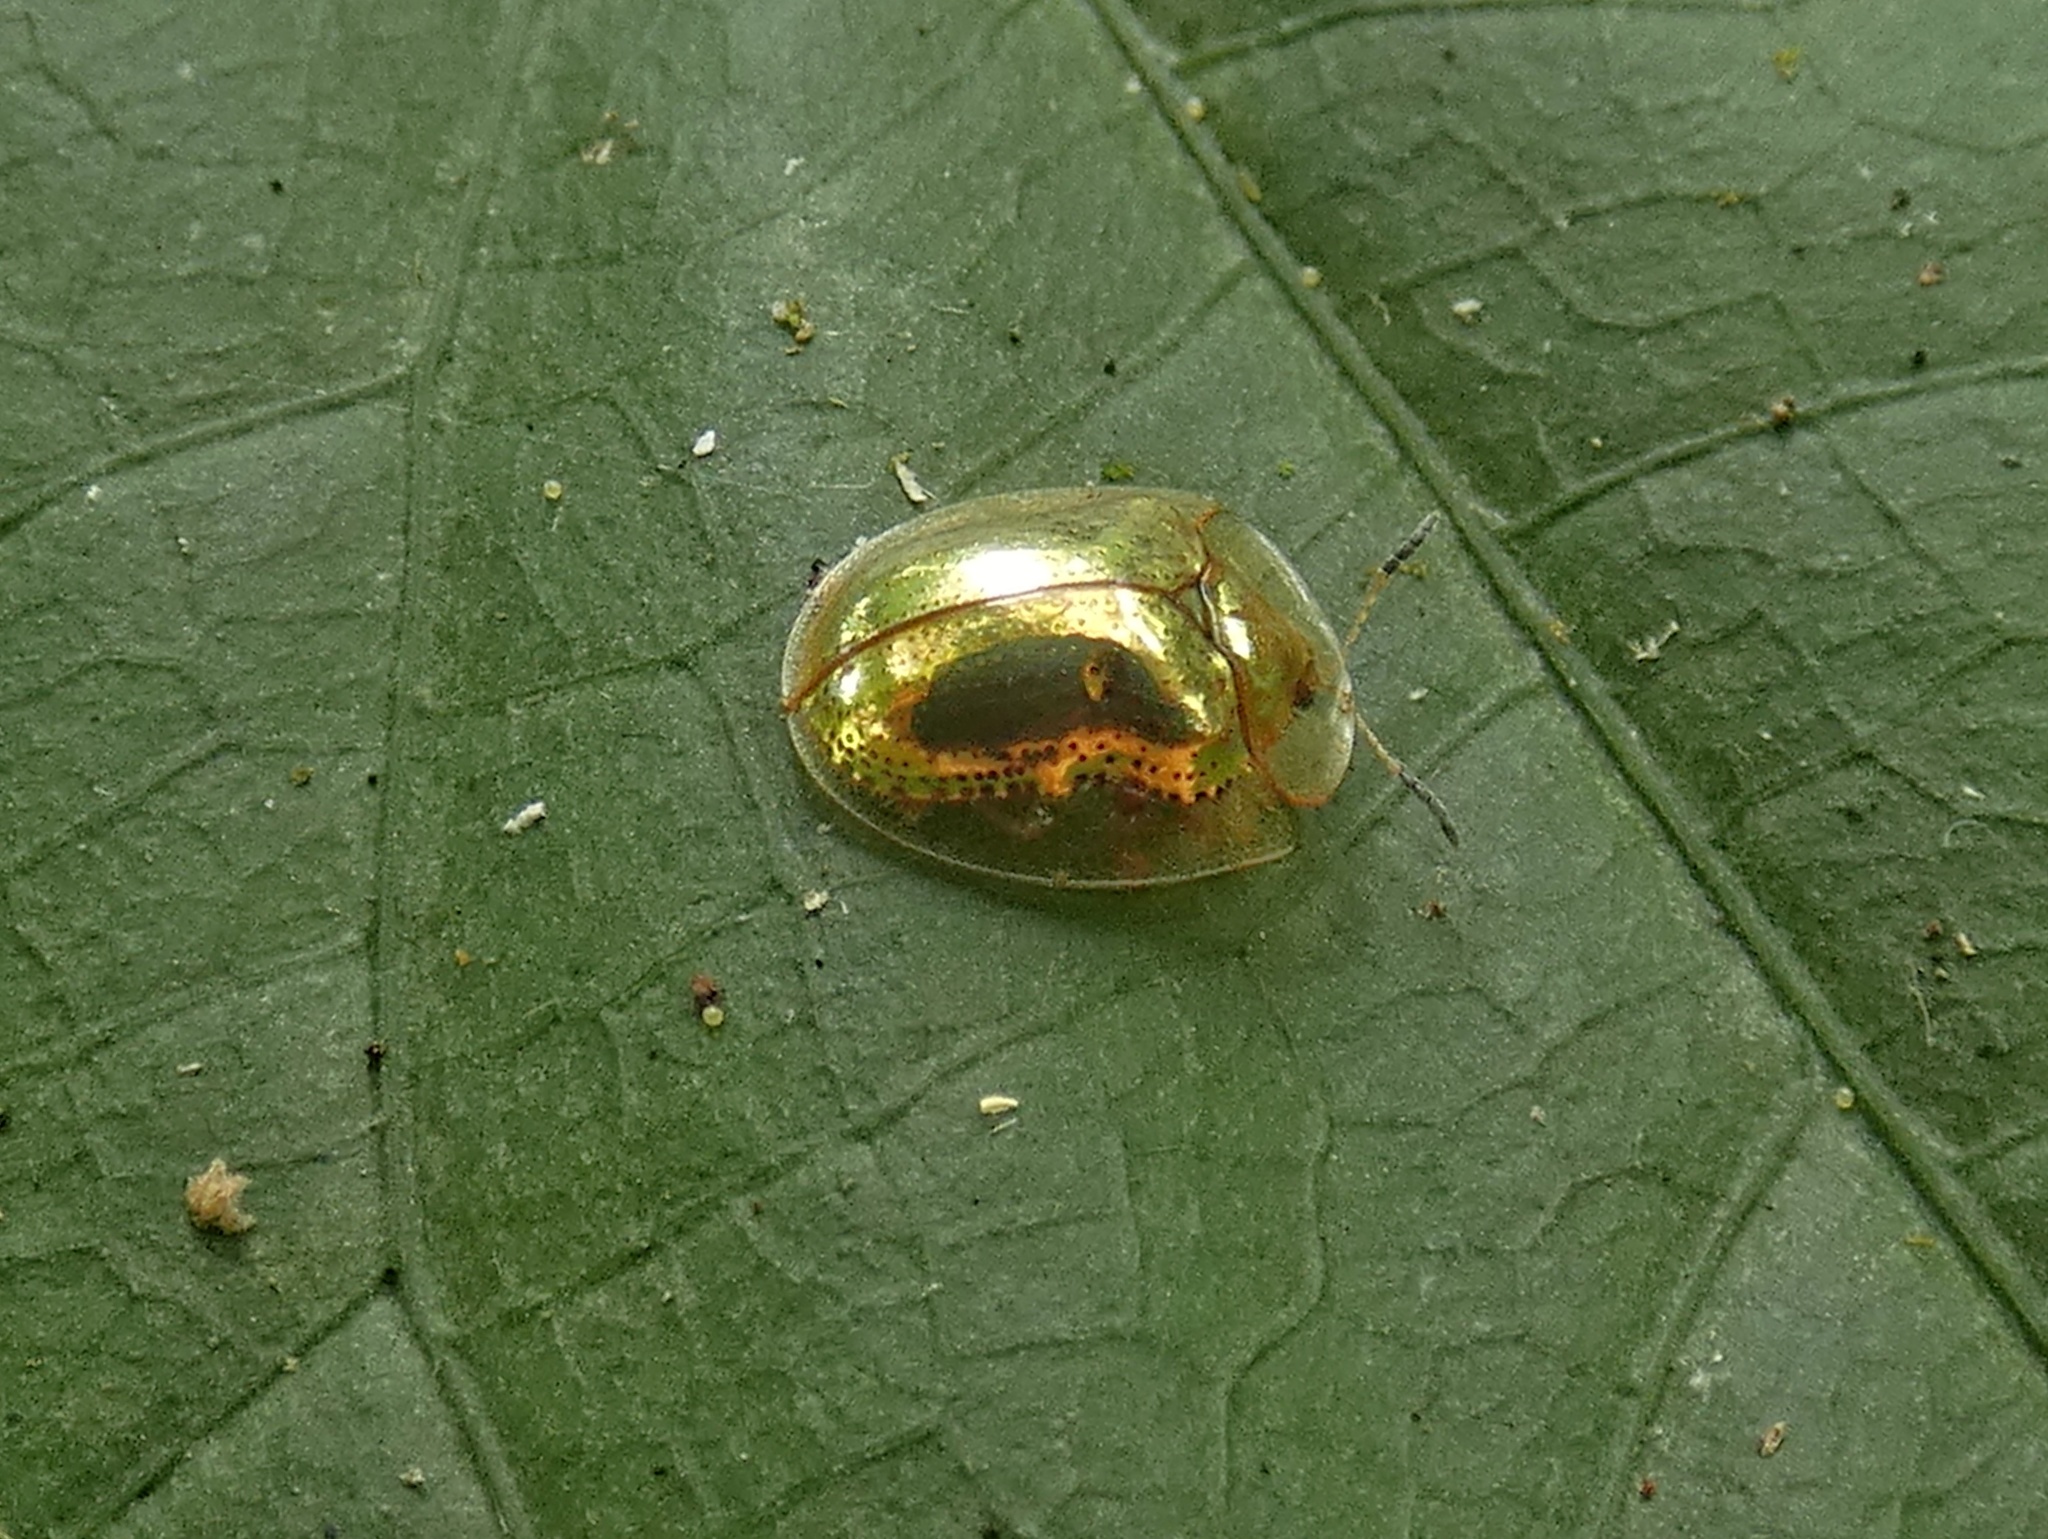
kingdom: Animalia
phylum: Arthropoda
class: Insecta
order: Coleoptera
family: Chrysomelidae
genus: Charidotella
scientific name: Charidotella sexpunctata
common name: Golden tortoise beetle
